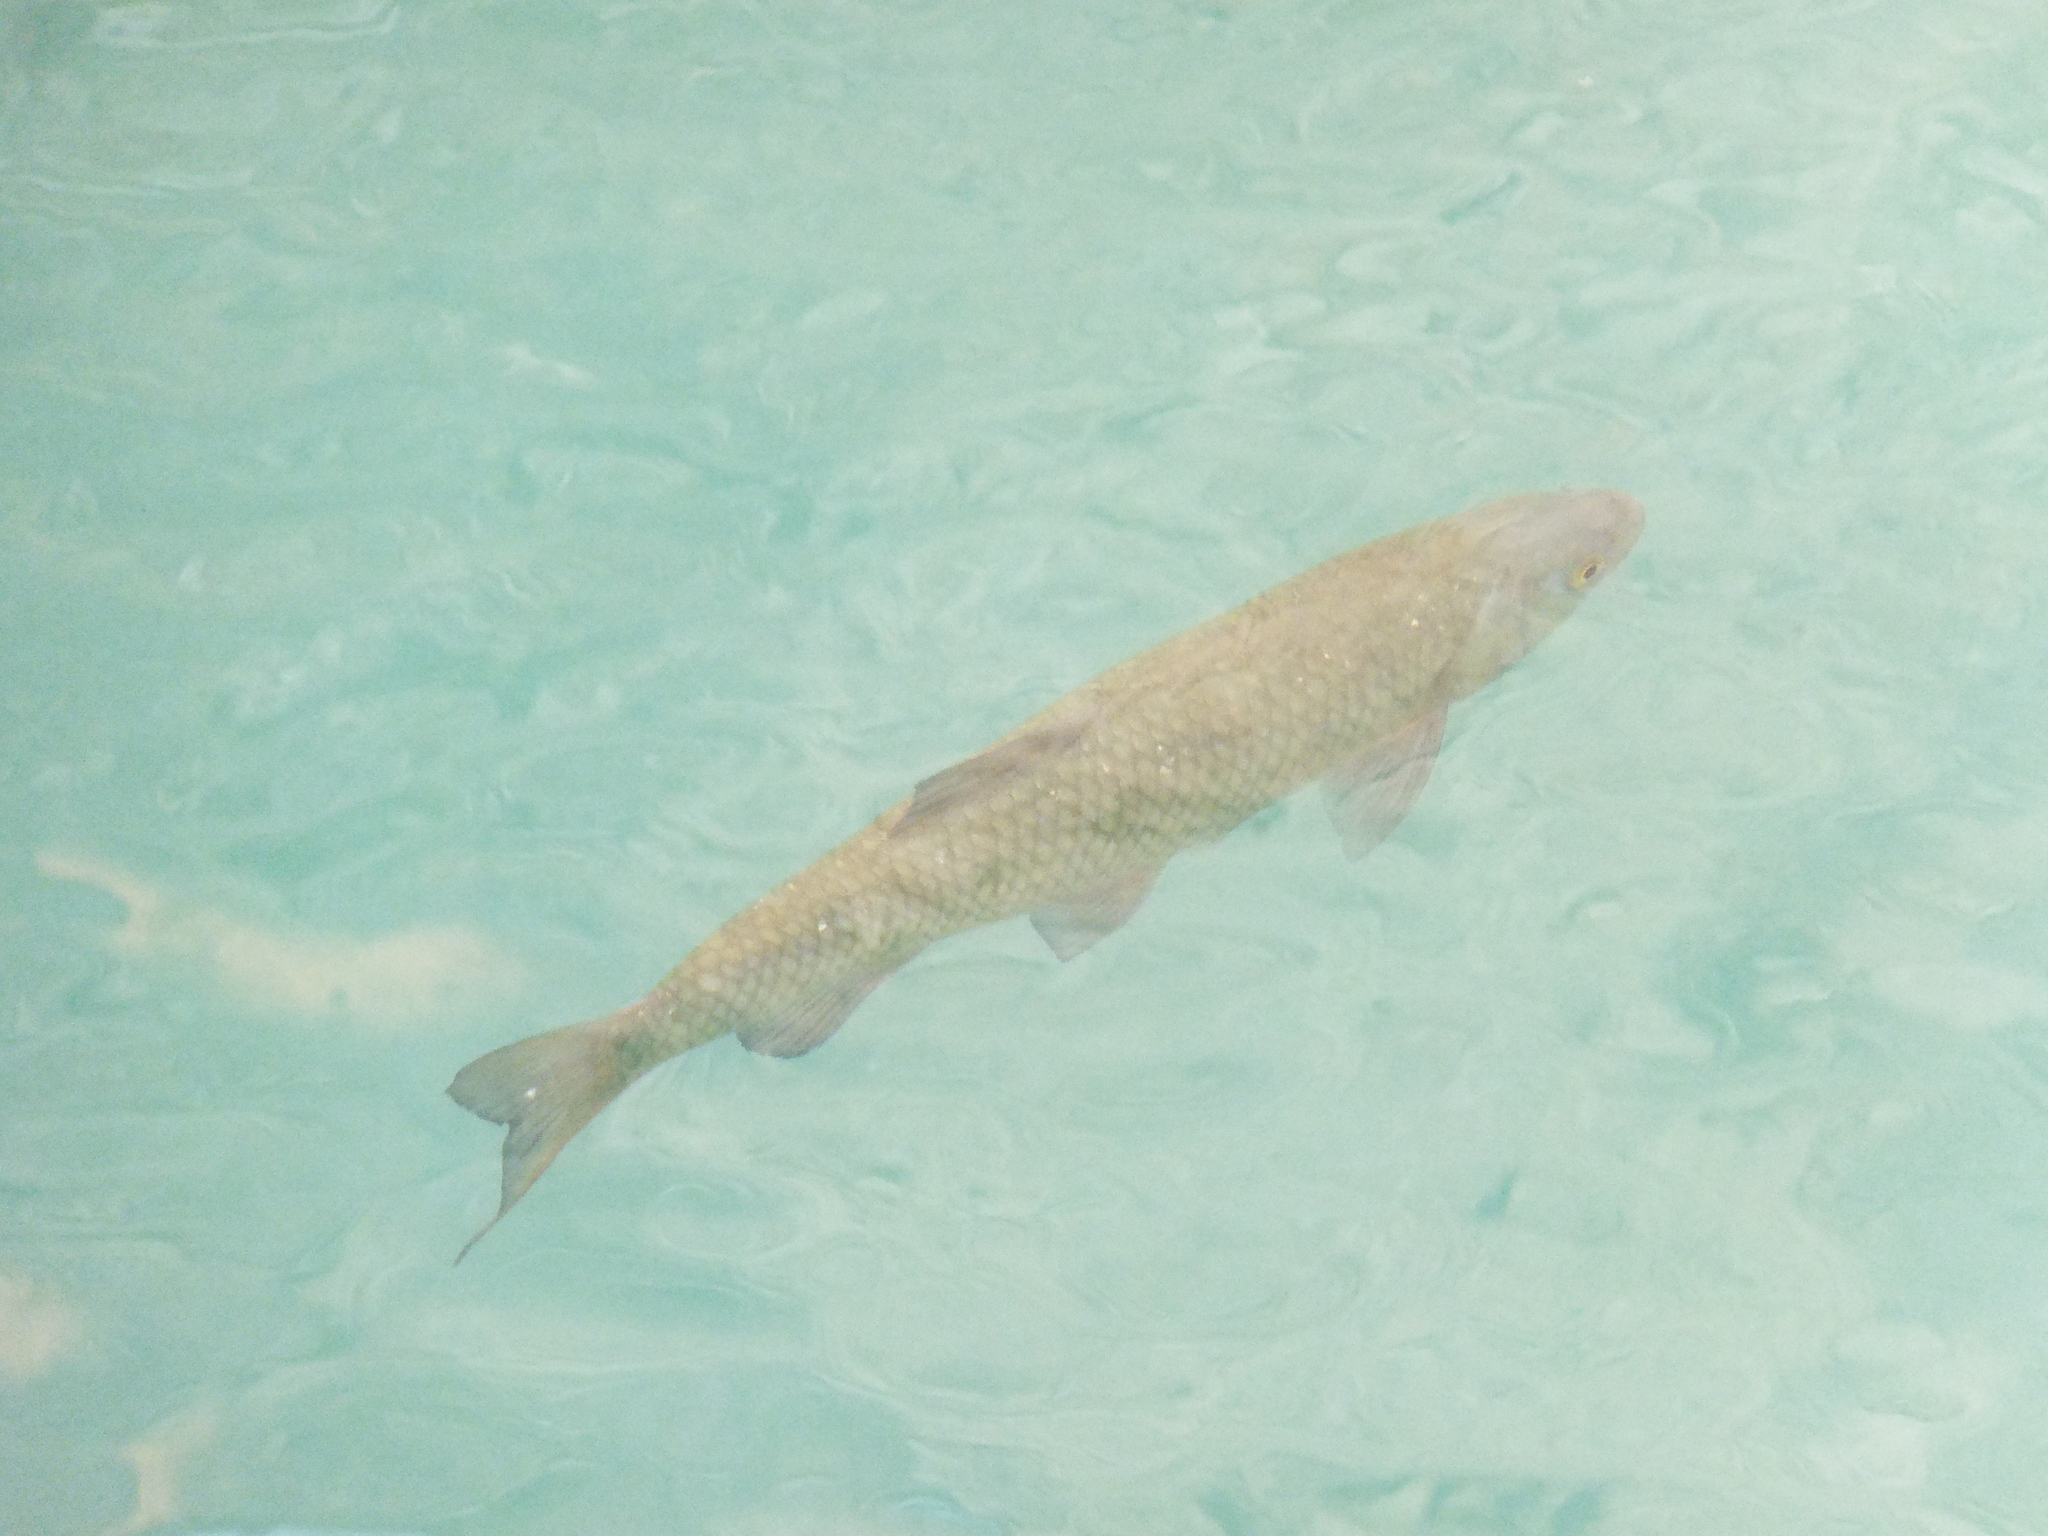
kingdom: Animalia
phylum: Chordata
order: Cypriniformes
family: Cyprinidae
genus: Squalius
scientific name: Squalius squalus
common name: Italian chub
